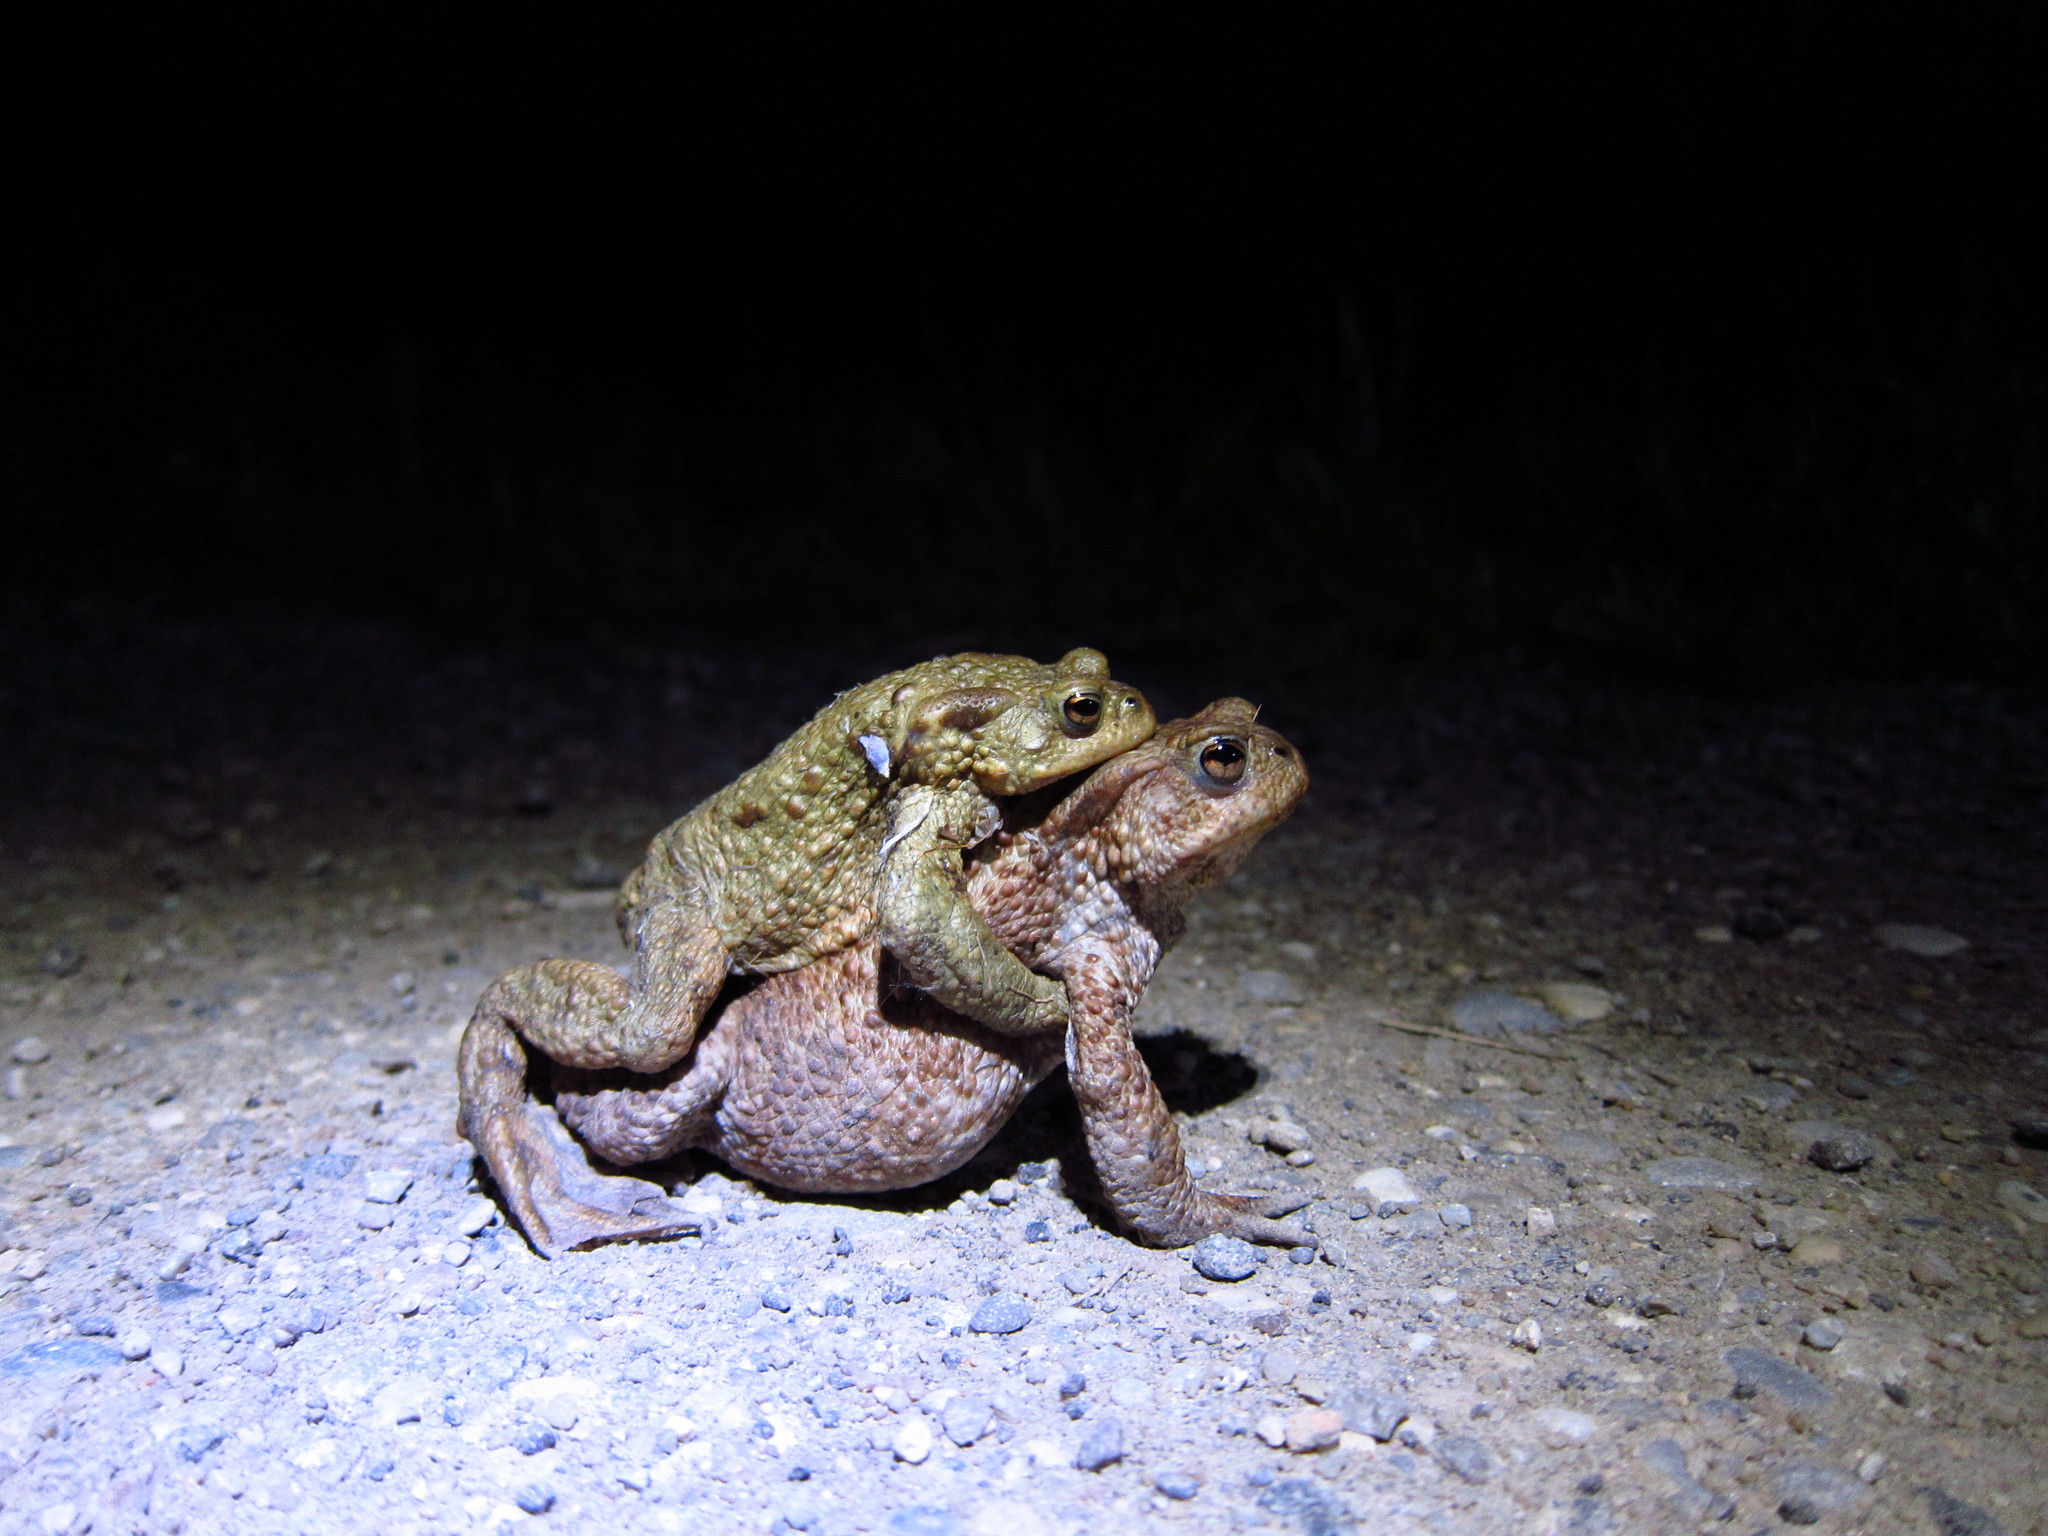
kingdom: Animalia
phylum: Chordata
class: Amphibia
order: Anura
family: Bufonidae
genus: Bufo
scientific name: Bufo bufo
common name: Common toad
